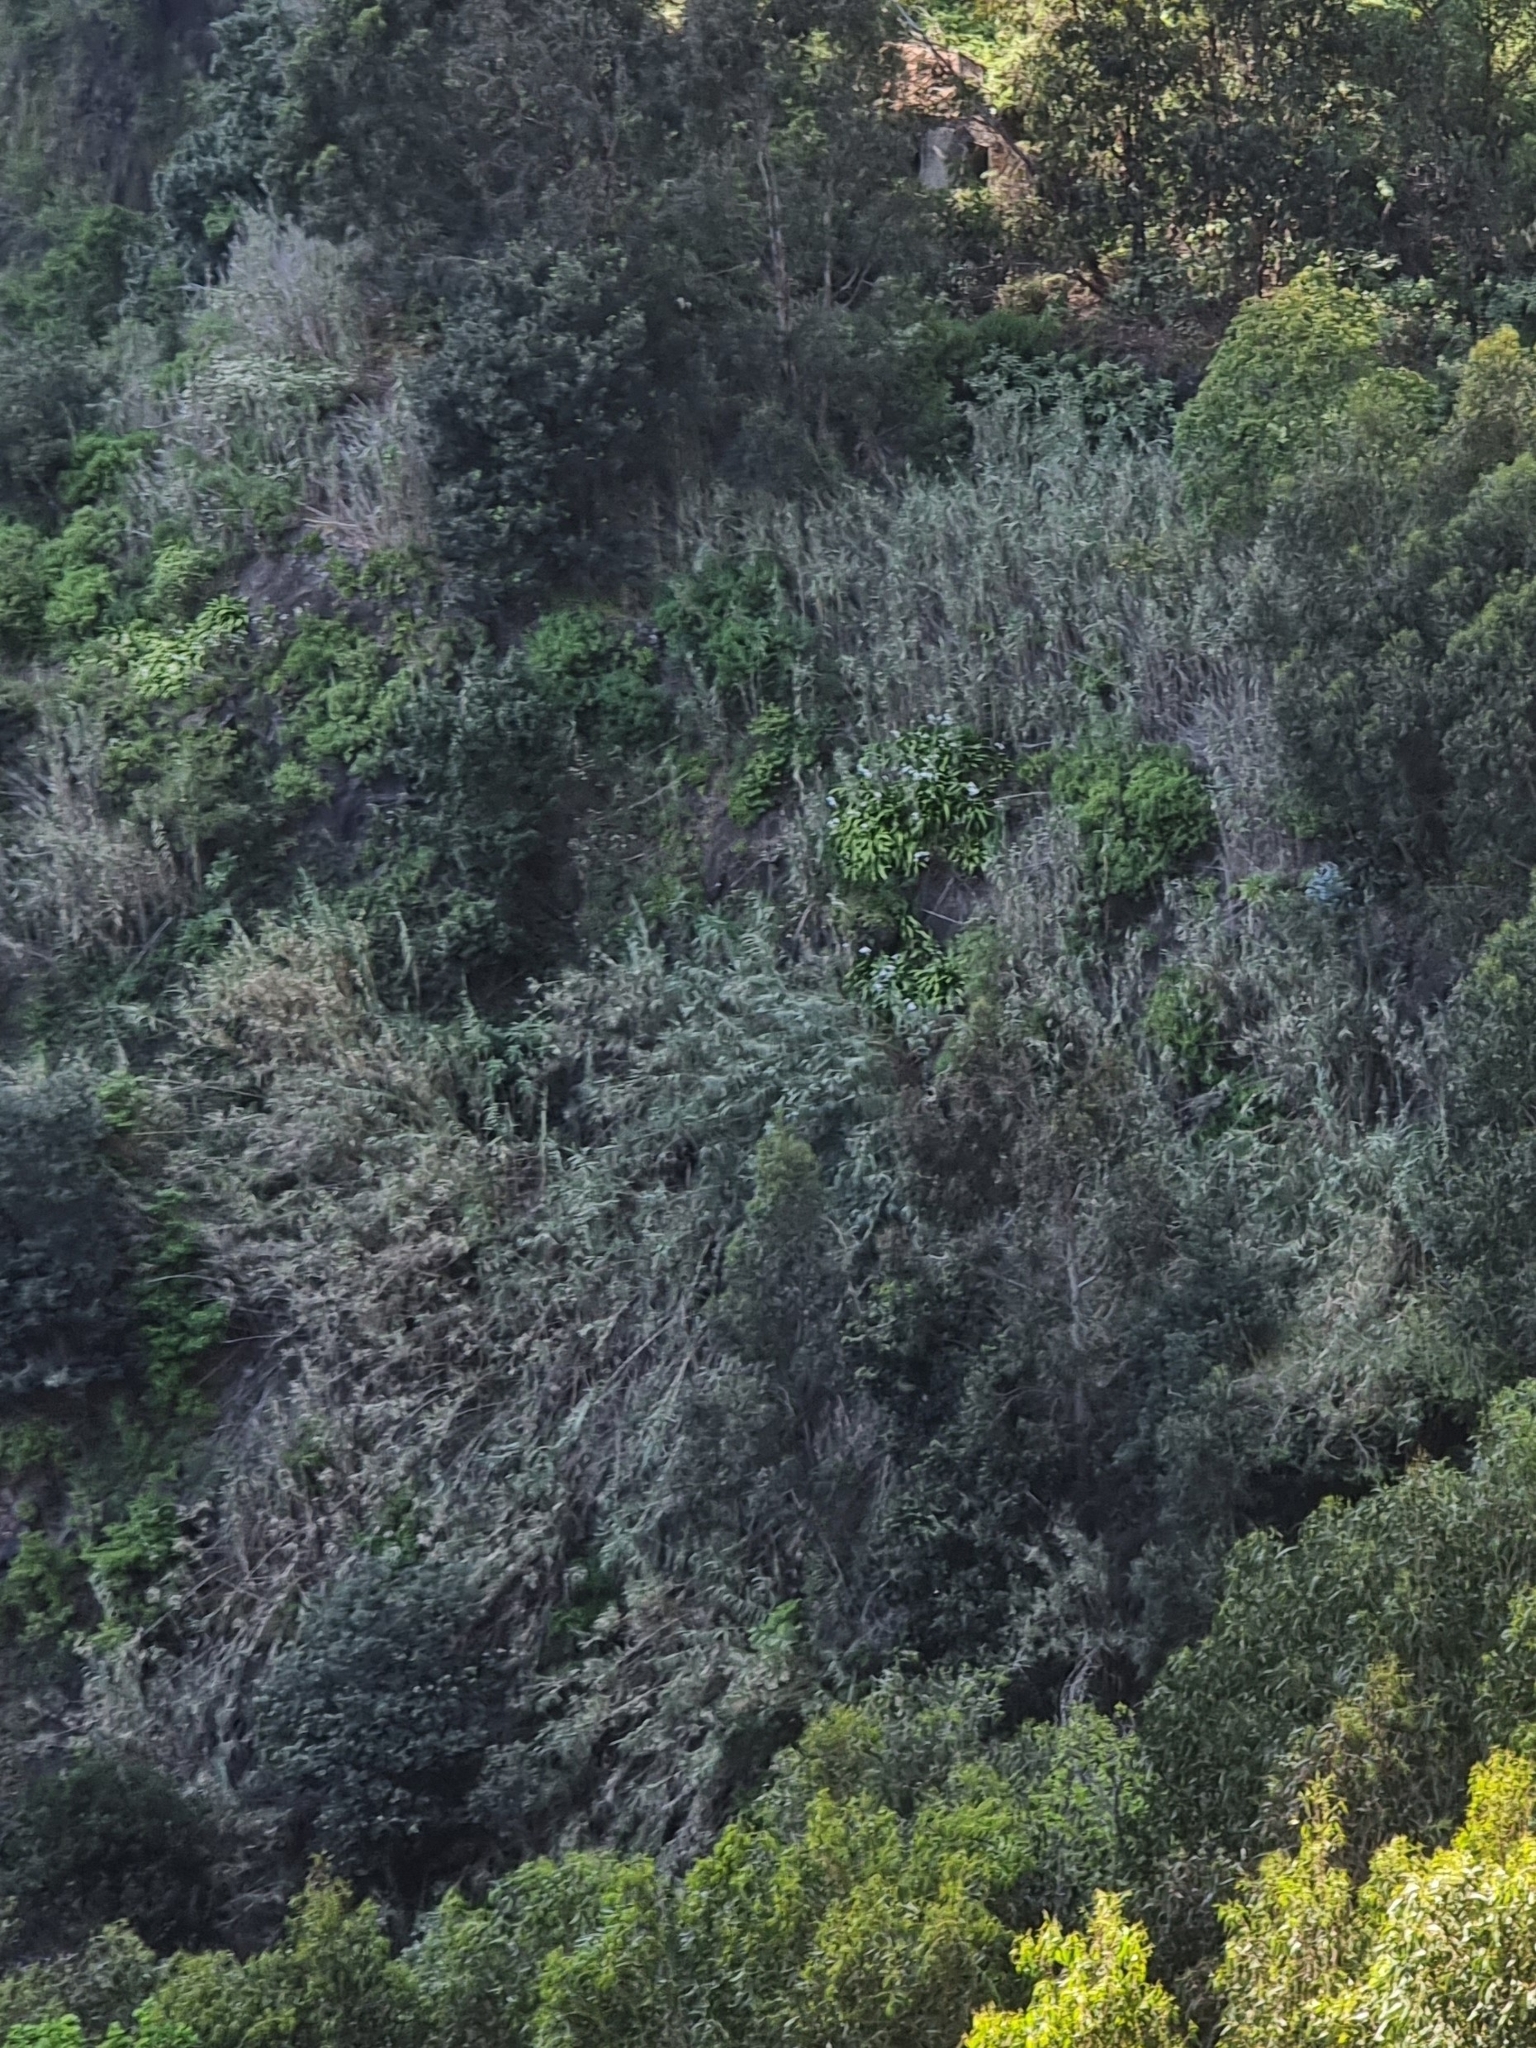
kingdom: Plantae
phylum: Tracheophyta
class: Liliopsida
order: Poales
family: Poaceae
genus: Arundo
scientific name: Arundo donax
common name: Giant reed
